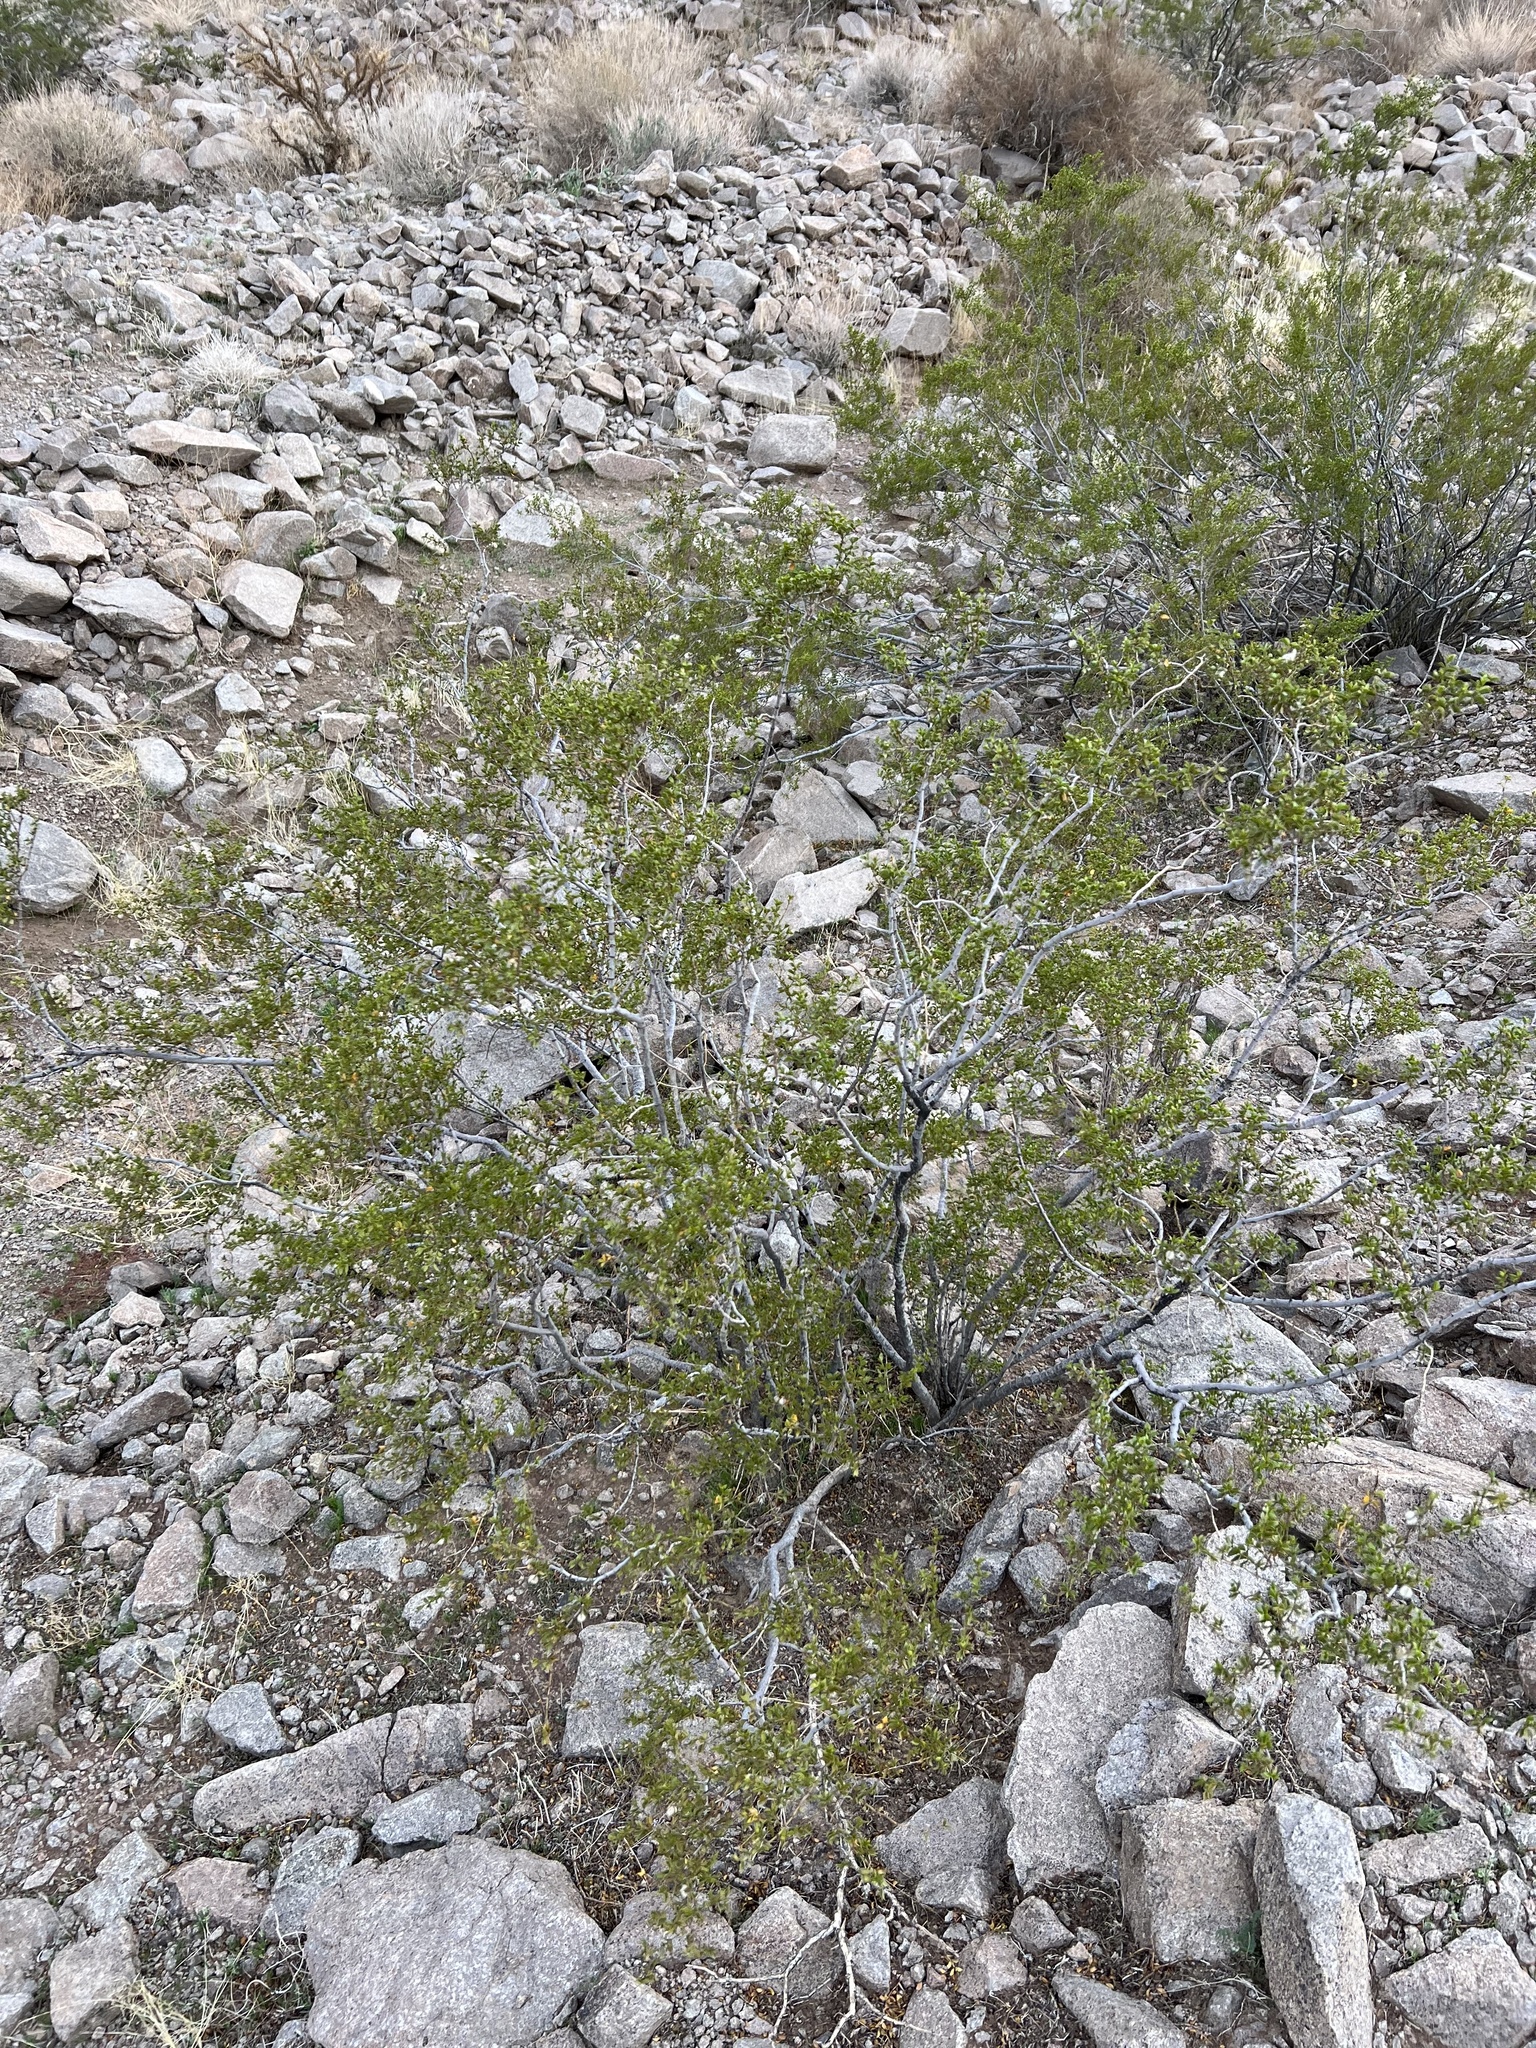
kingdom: Plantae
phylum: Tracheophyta
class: Magnoliopsida
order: Zygophyllales
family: Zygophyllaceae
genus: Larrea
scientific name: Larrea tridentata
